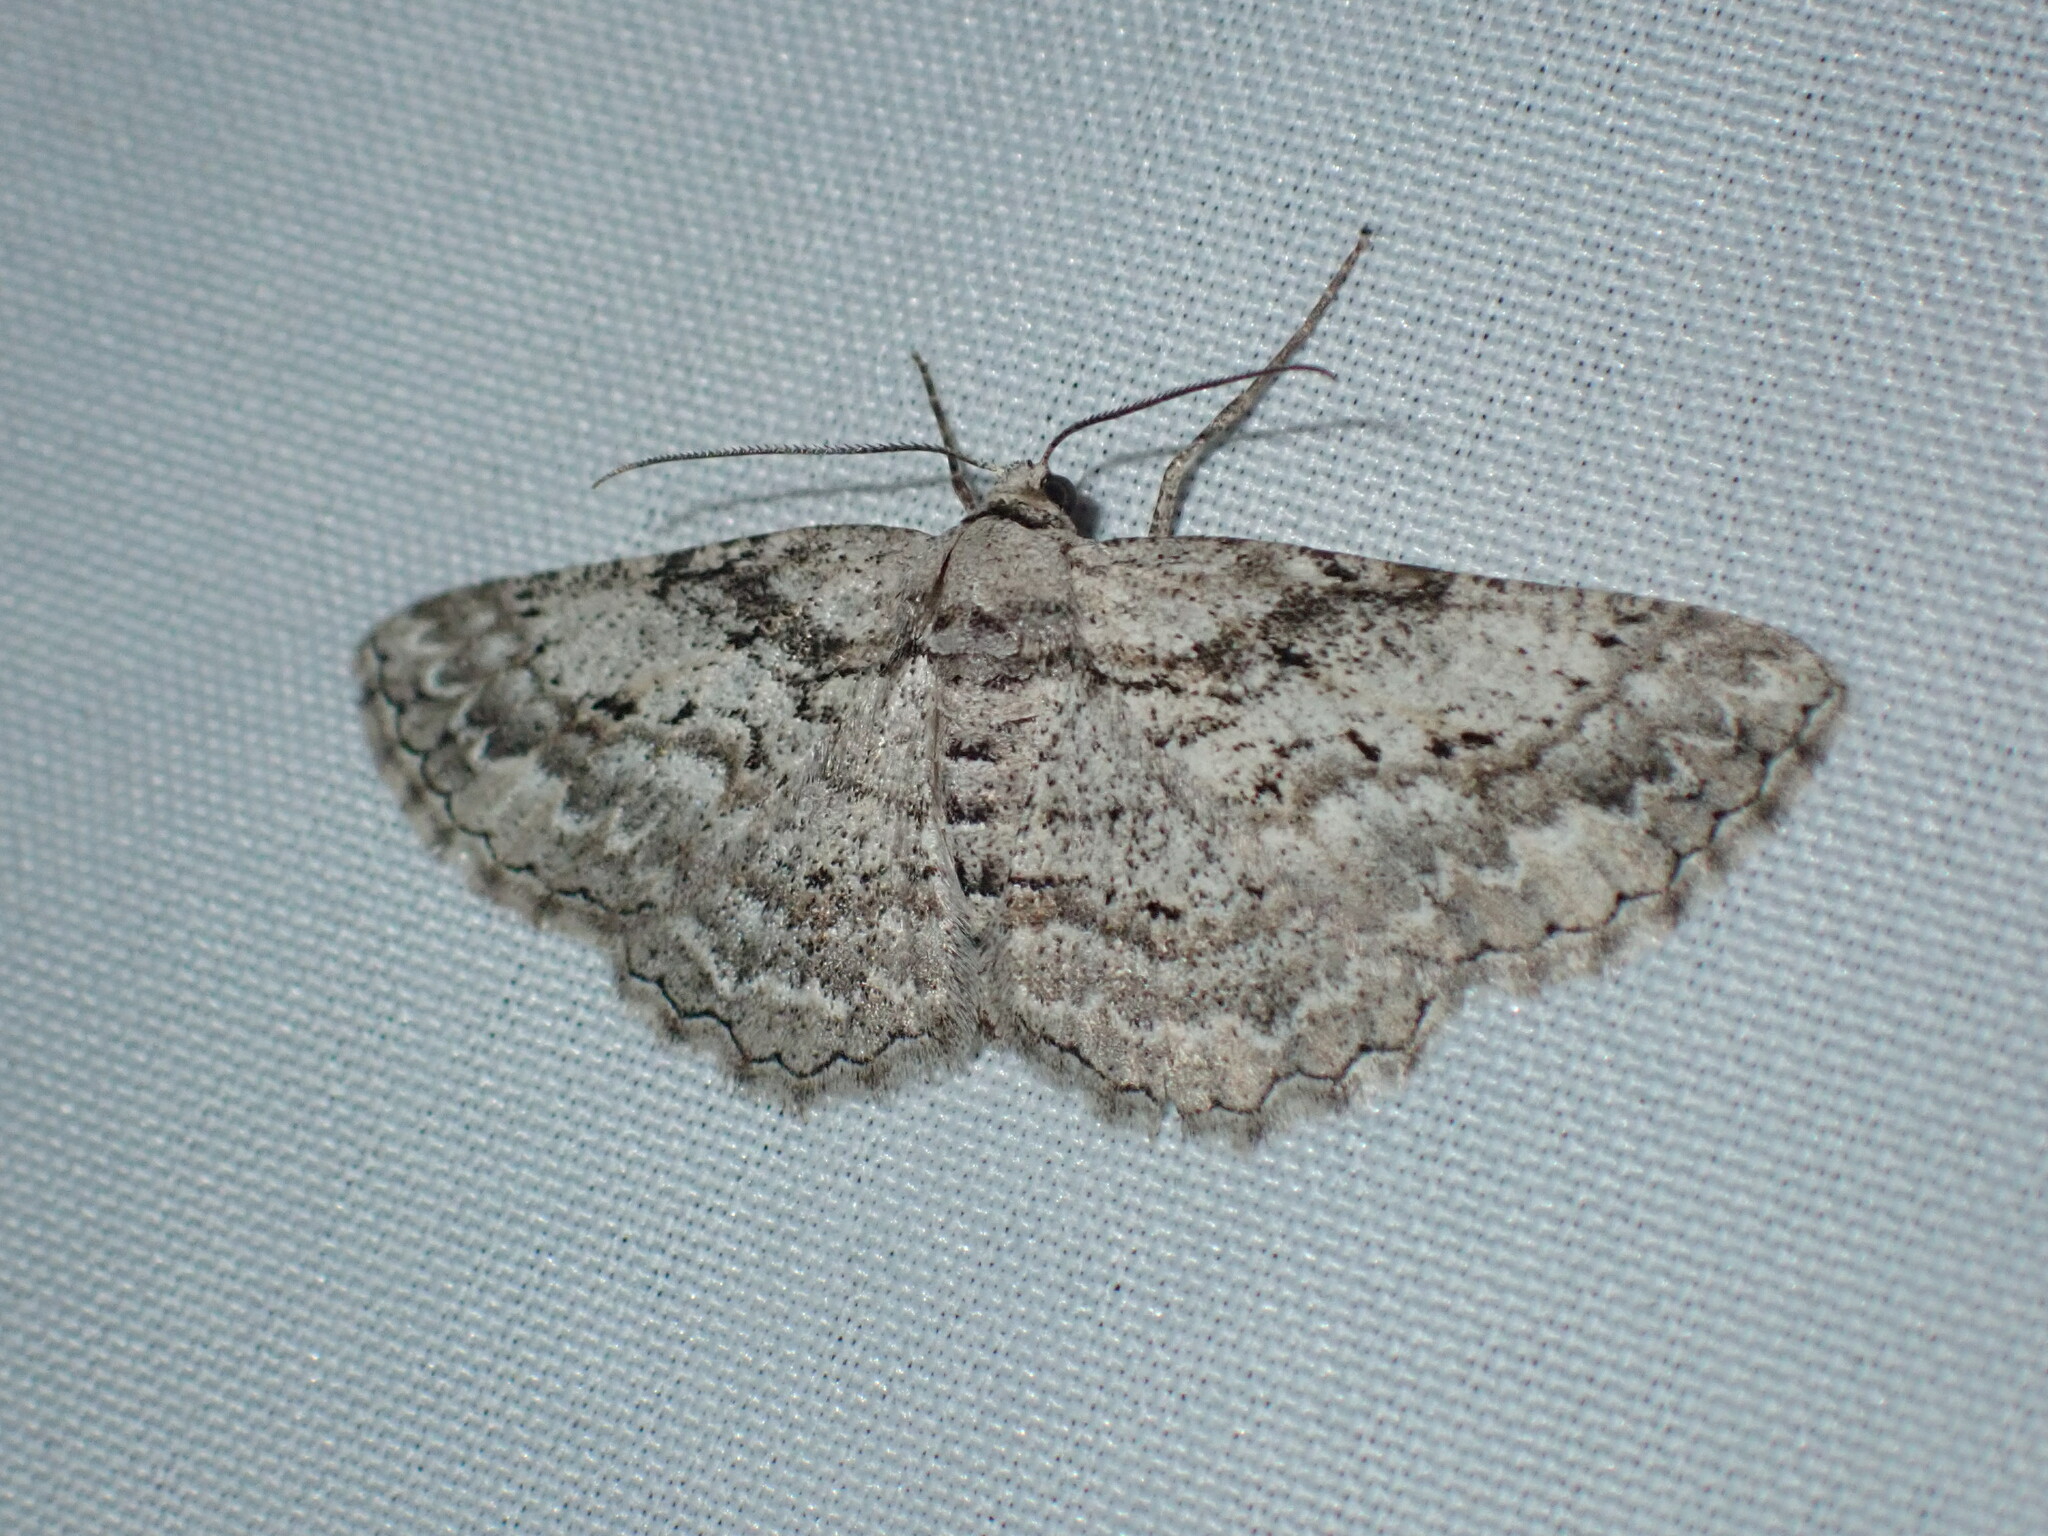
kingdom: Animalia
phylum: Arthropoda
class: Insecta
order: Lepidoptera
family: Geometridae
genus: Iridopsis
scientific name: Iridopsis emasculatum
